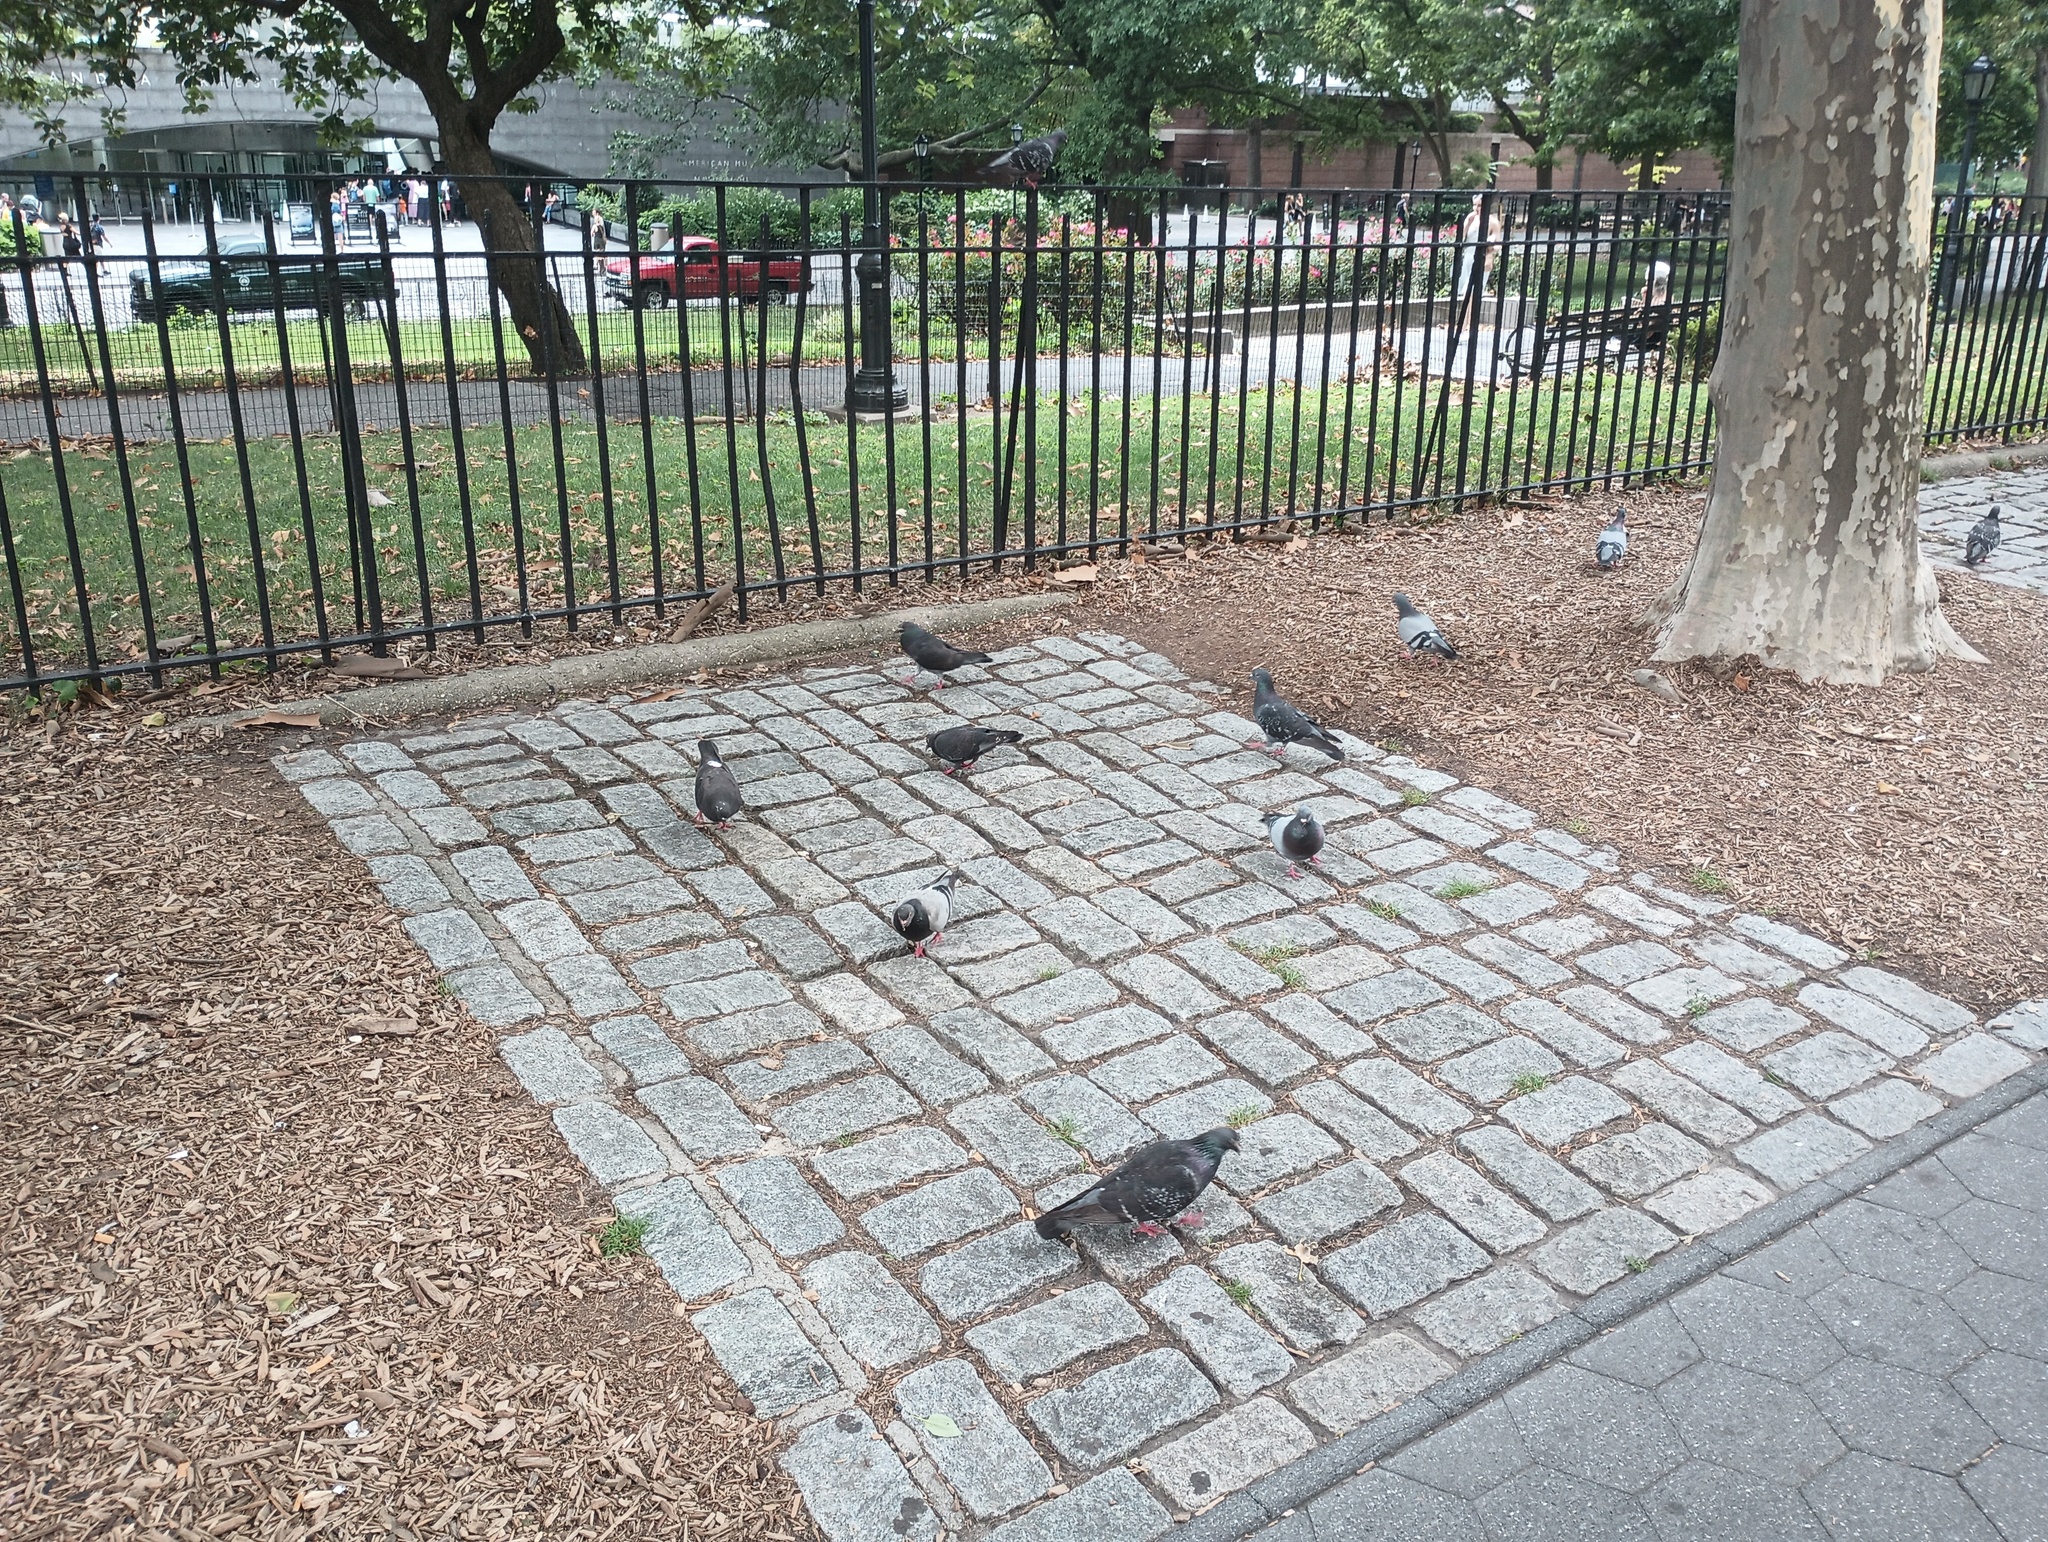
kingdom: Animalia
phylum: Chordata
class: Aves
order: Columbiformes
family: Columbidae
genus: Columba
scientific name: Columba livia
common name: Rock pigeon
